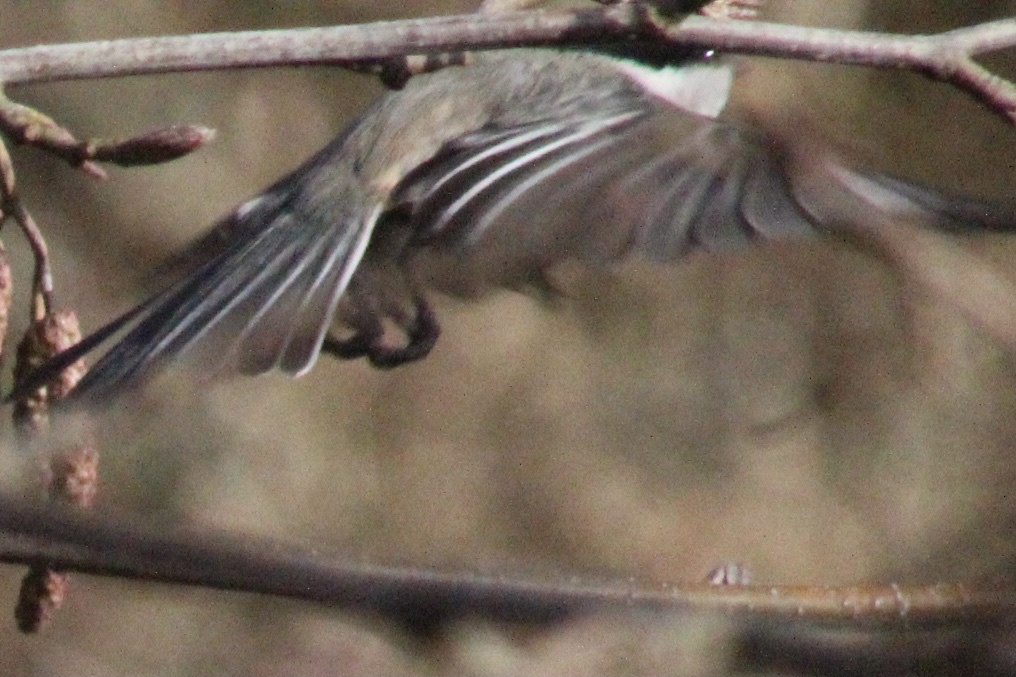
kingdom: Animalia
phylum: Chordata
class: Aves
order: Passeriformes
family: Paridae
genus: Poecile
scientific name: Poecile atricapillus
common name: Black-capped chickadee
